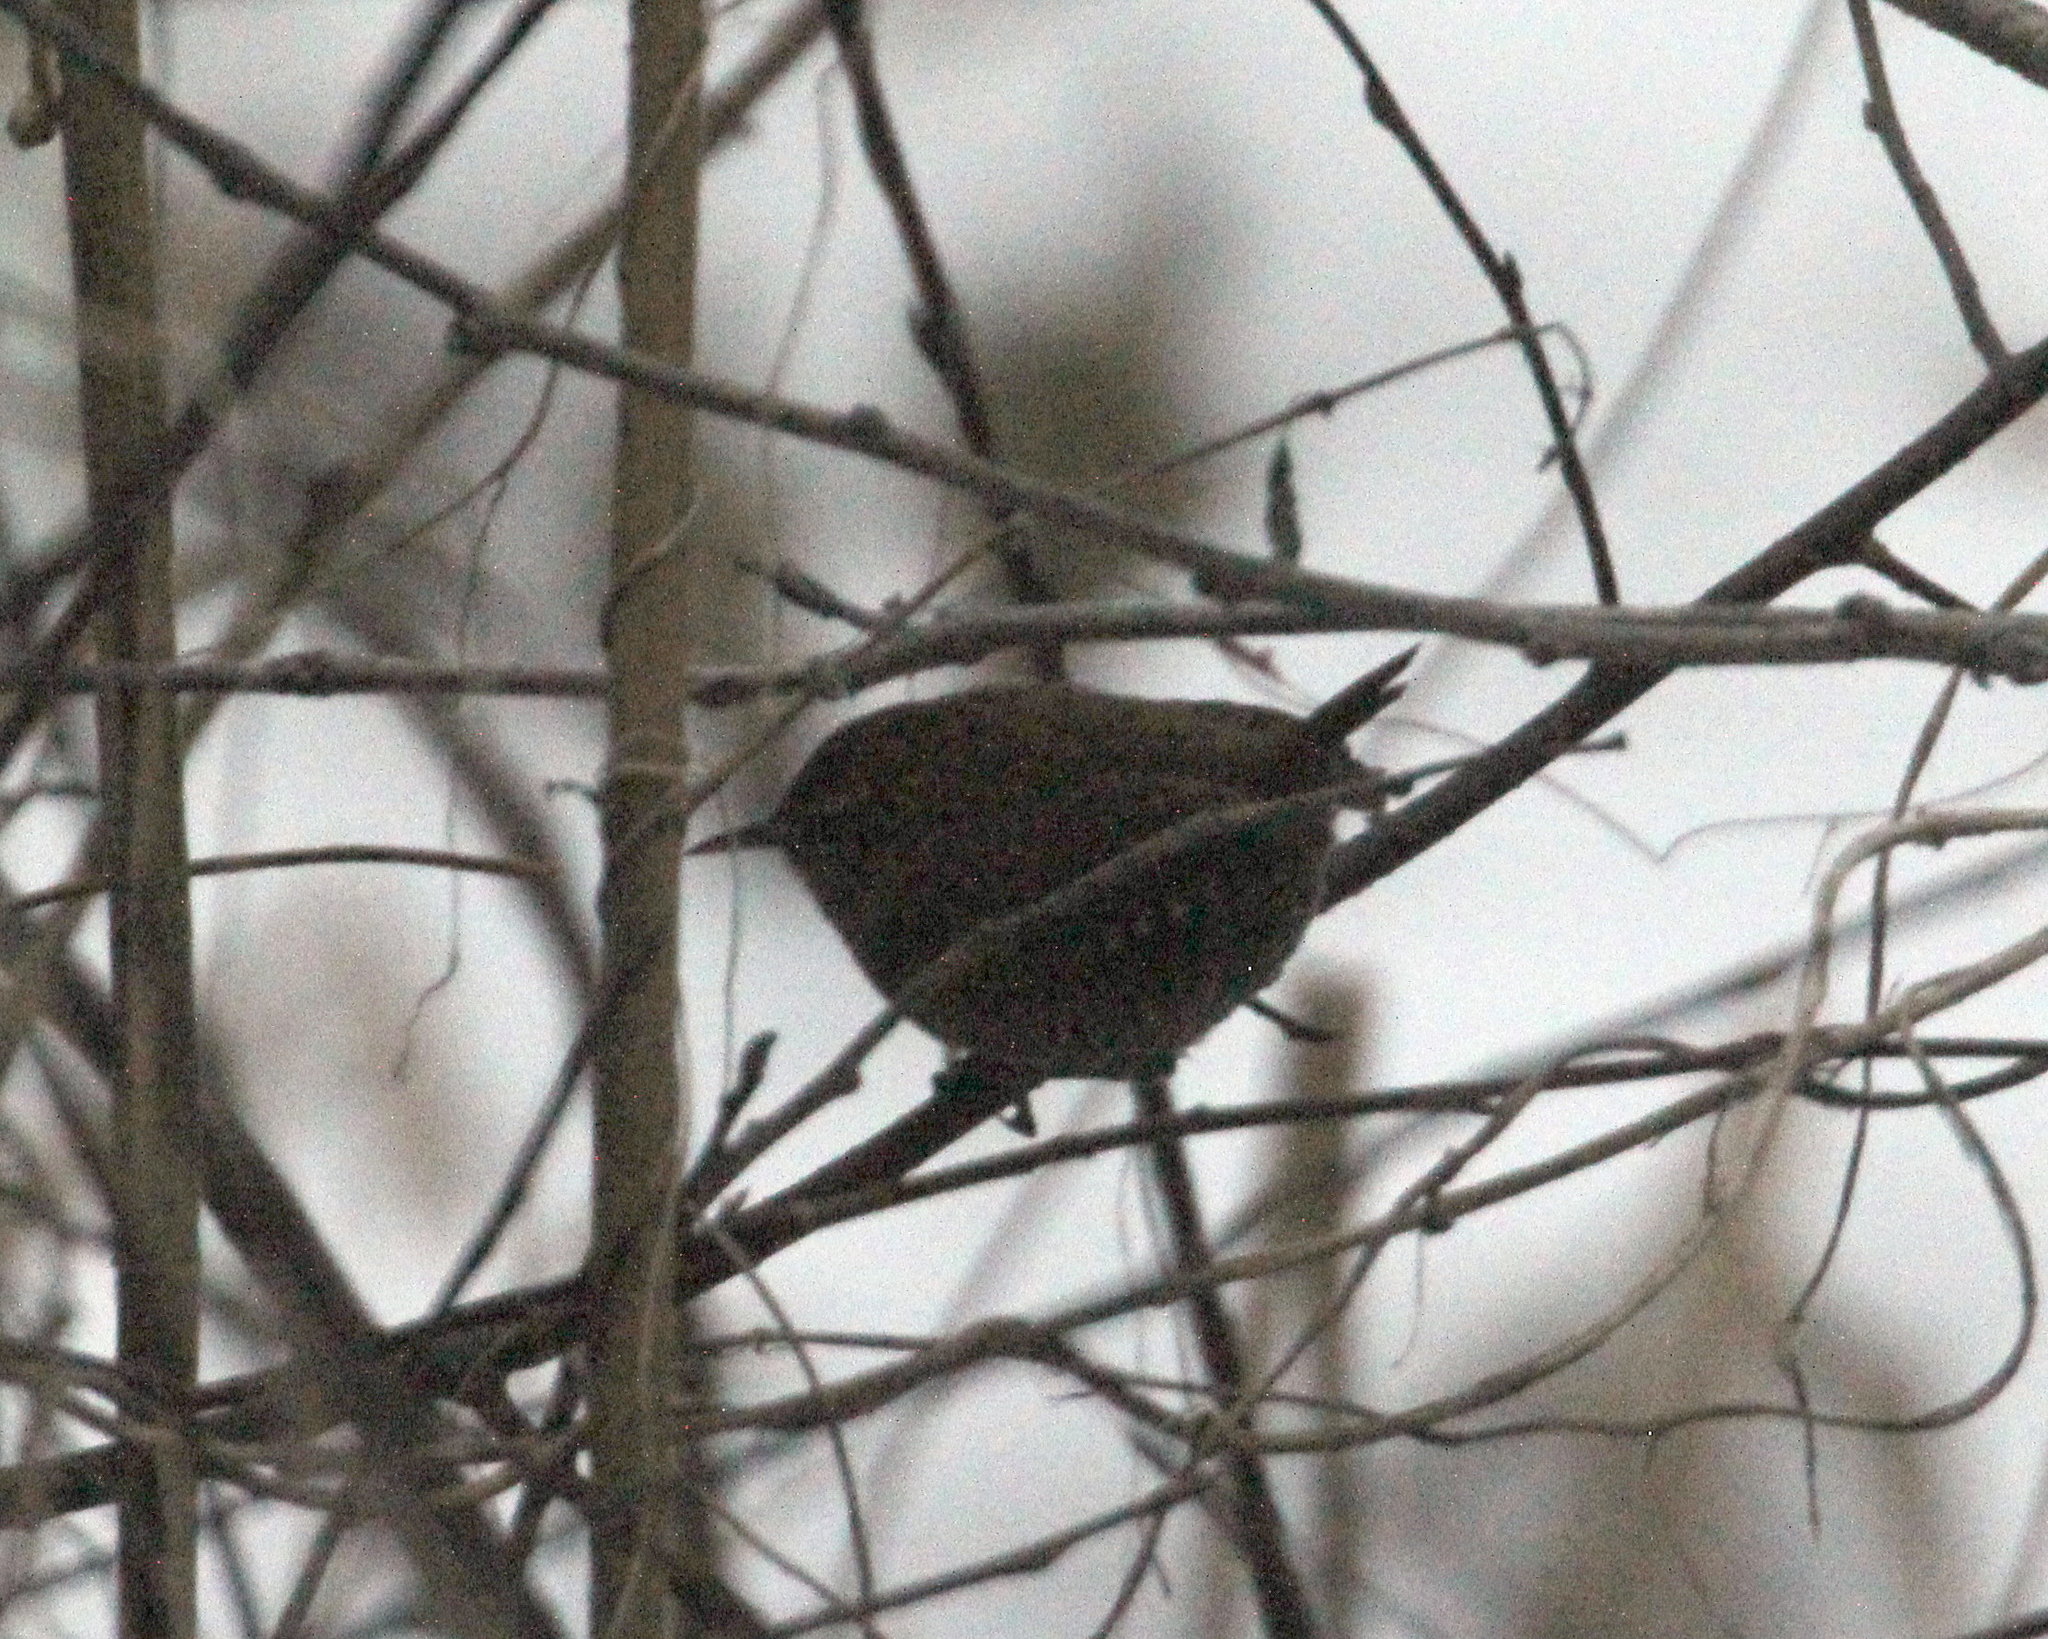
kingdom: Animalia
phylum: Chordata
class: Aves
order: Passeriformes
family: Troglodytidae
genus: Troglodytes
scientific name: Troglodytes troglodytes
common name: Eurasian wren
